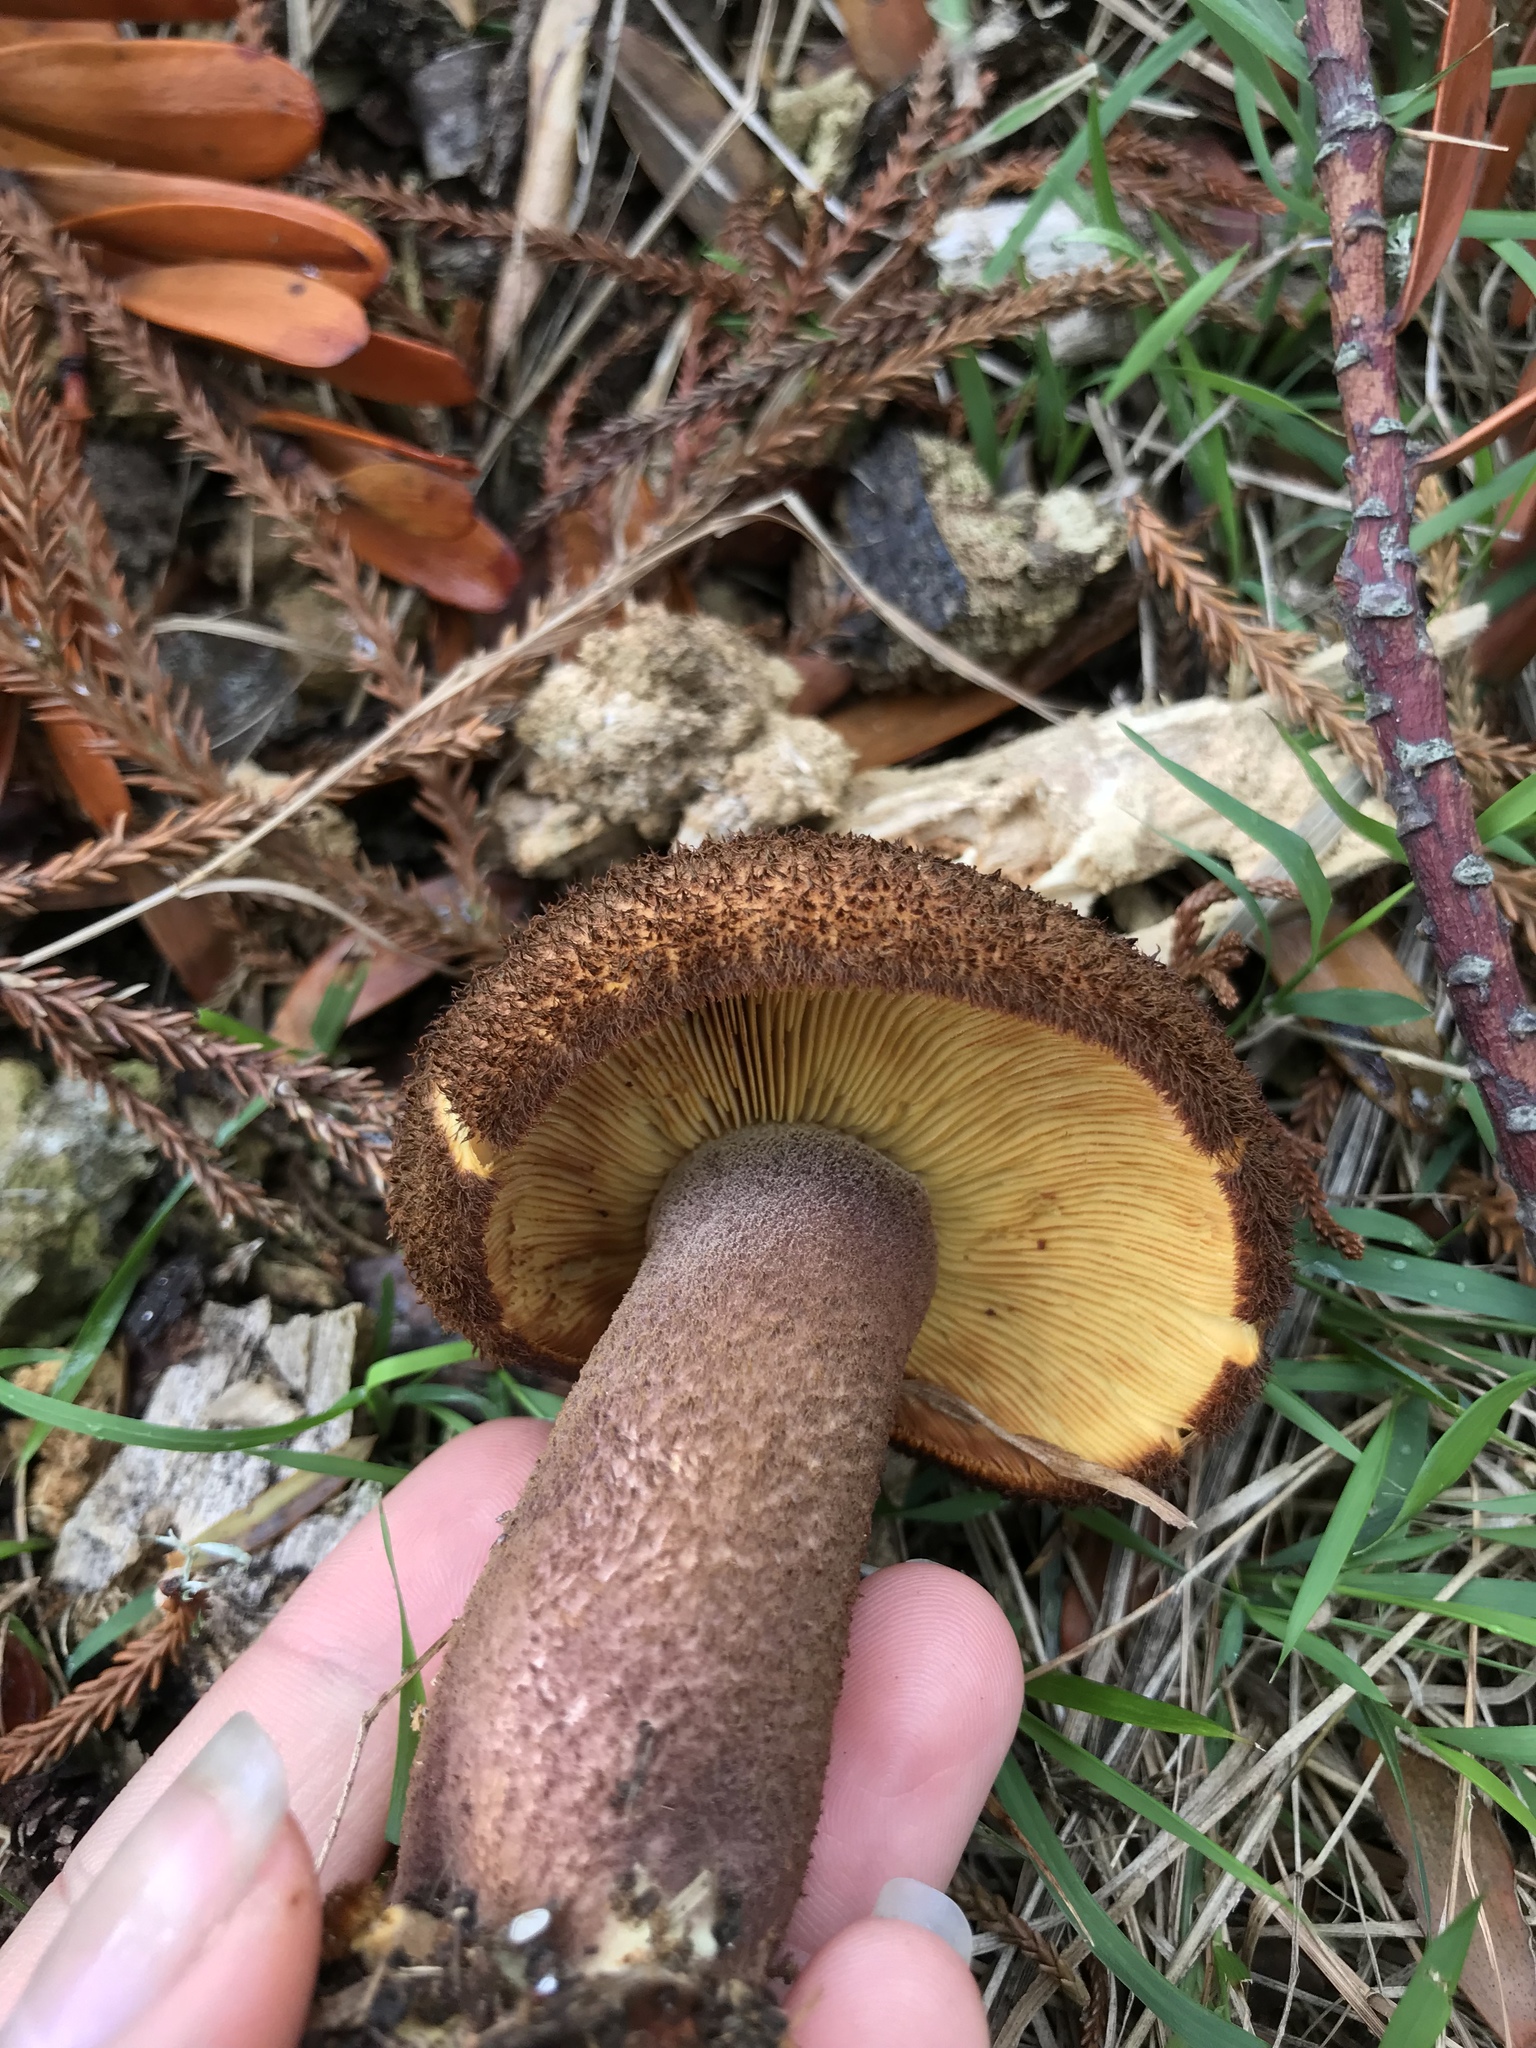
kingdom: Fungi
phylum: Basidiomycota
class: Agaricomycetes
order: Agaricales
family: Tricholomataceae
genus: Tricholomopsis
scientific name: Tricholomopsis scabra
